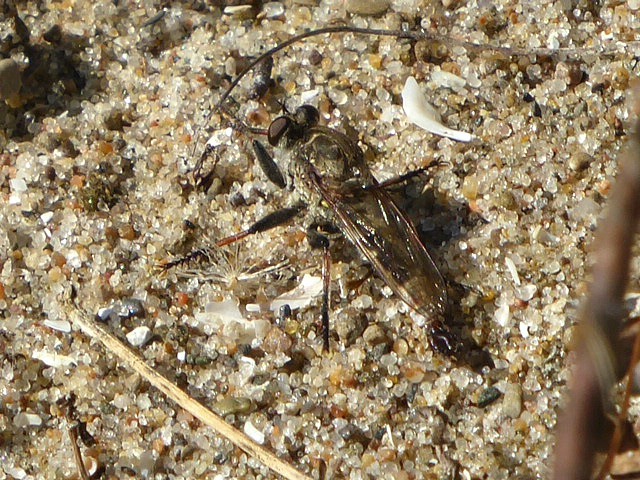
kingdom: Animalia
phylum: Arthropoda
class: Insecta
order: Diptera
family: Asilidae
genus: Efferia
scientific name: Efferia albibarbis
